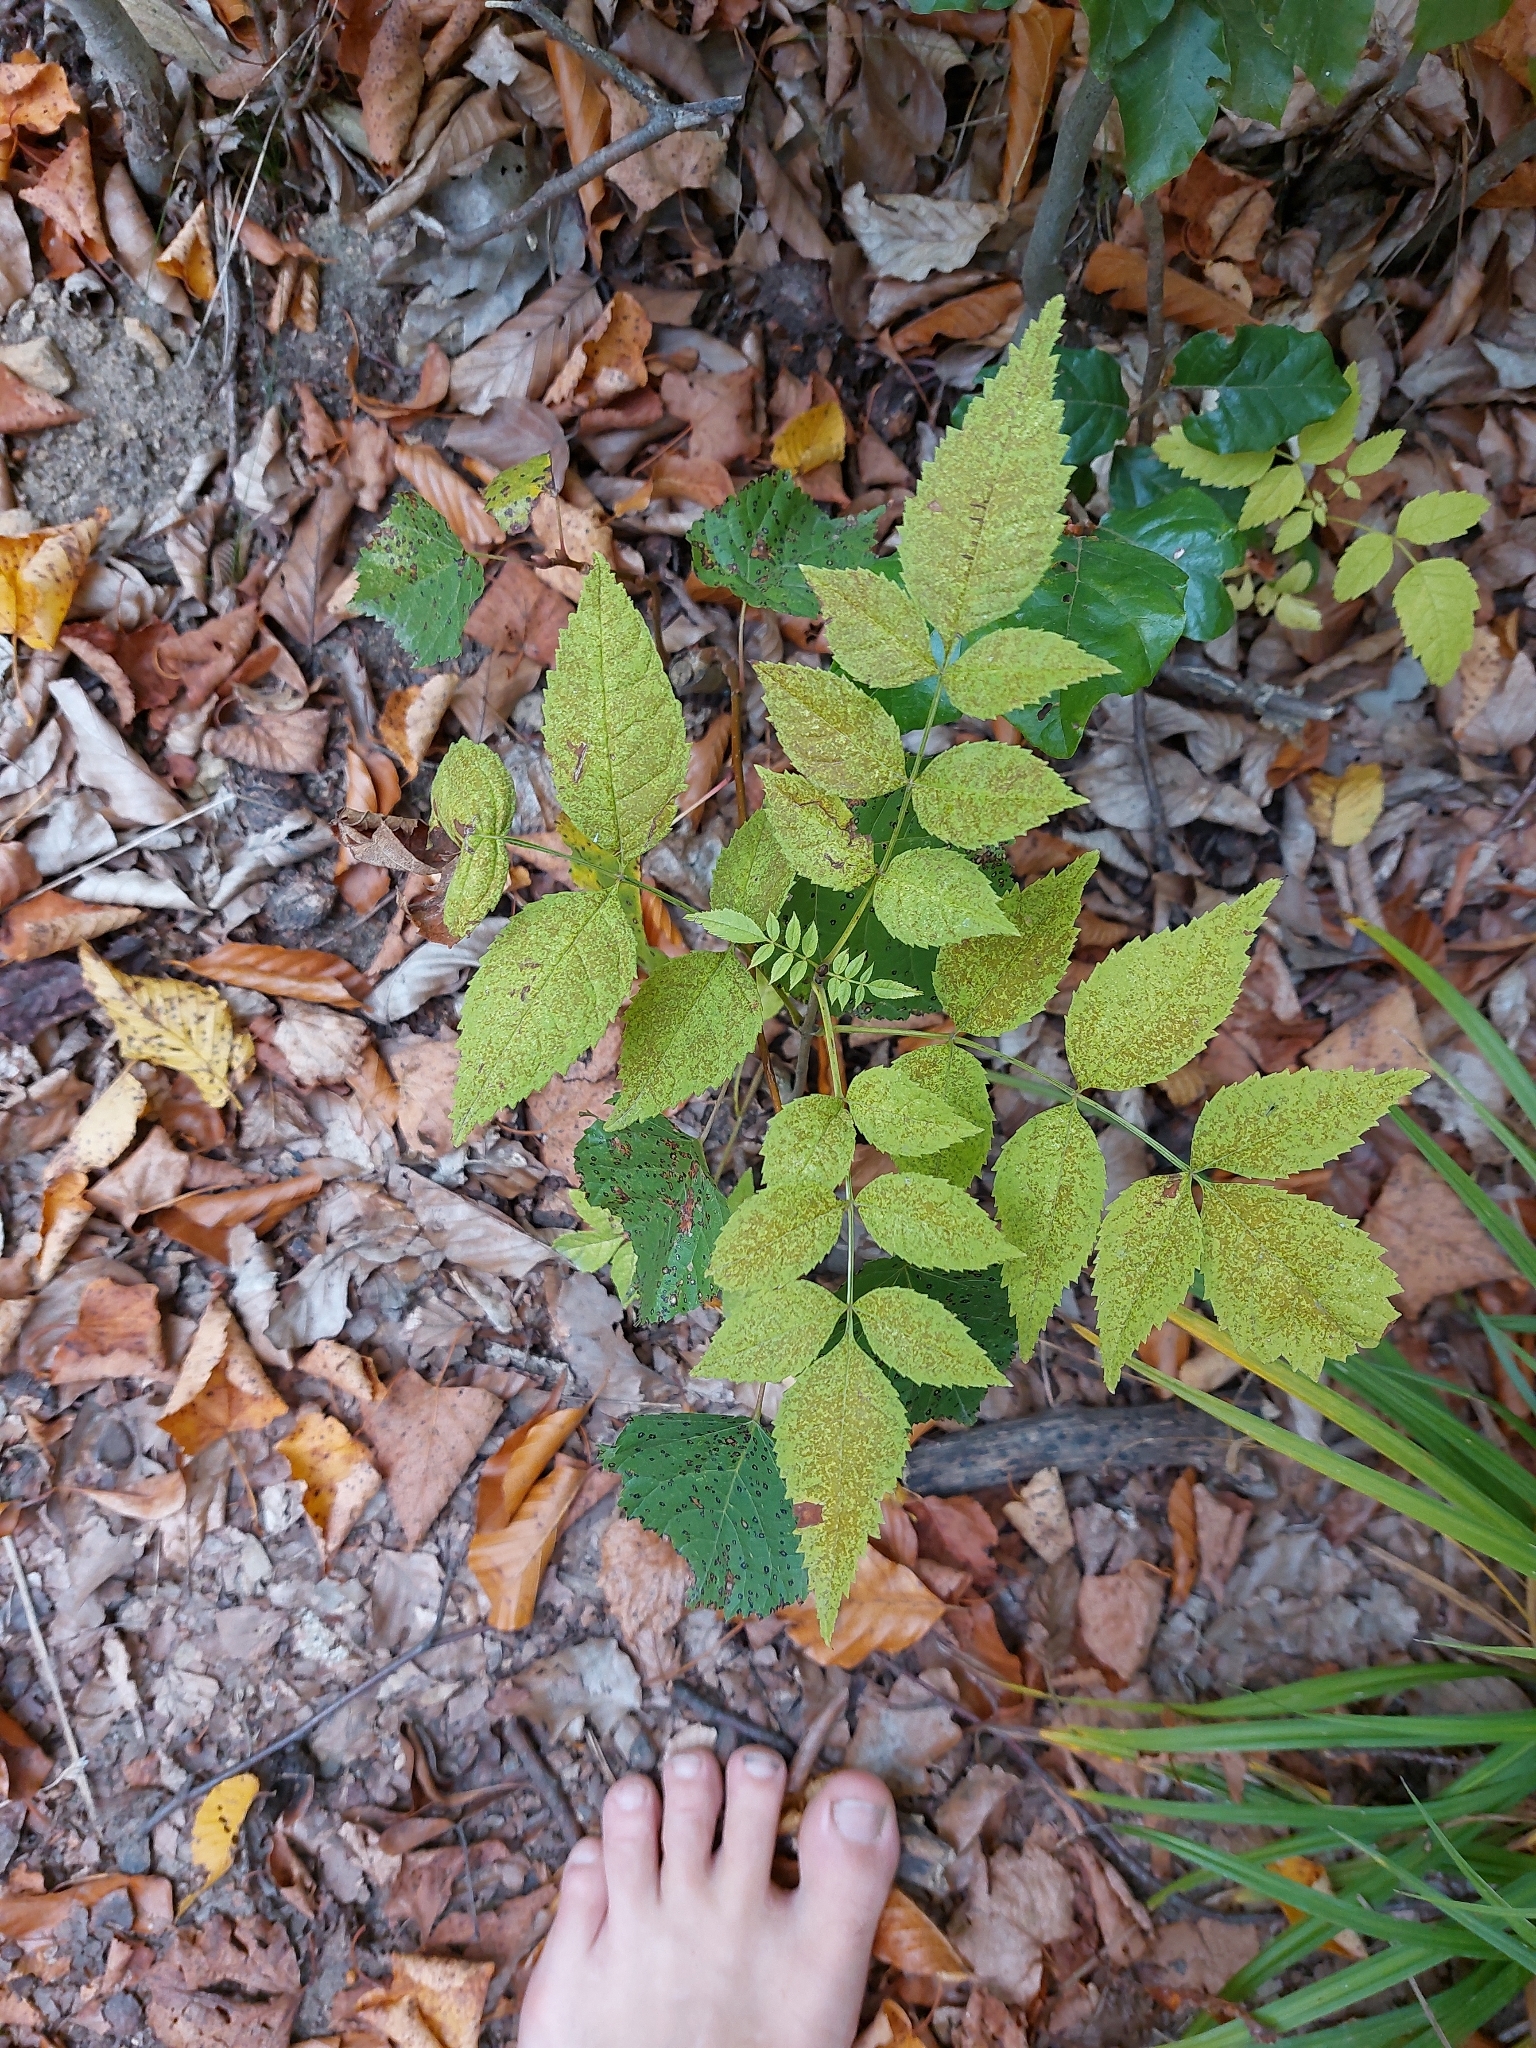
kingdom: Plantae
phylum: Tracheophyta
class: Magnoliopsida
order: Lamiales
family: Oleaceae
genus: Fraxinus
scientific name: Fraxinus excelsior
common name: European ash
